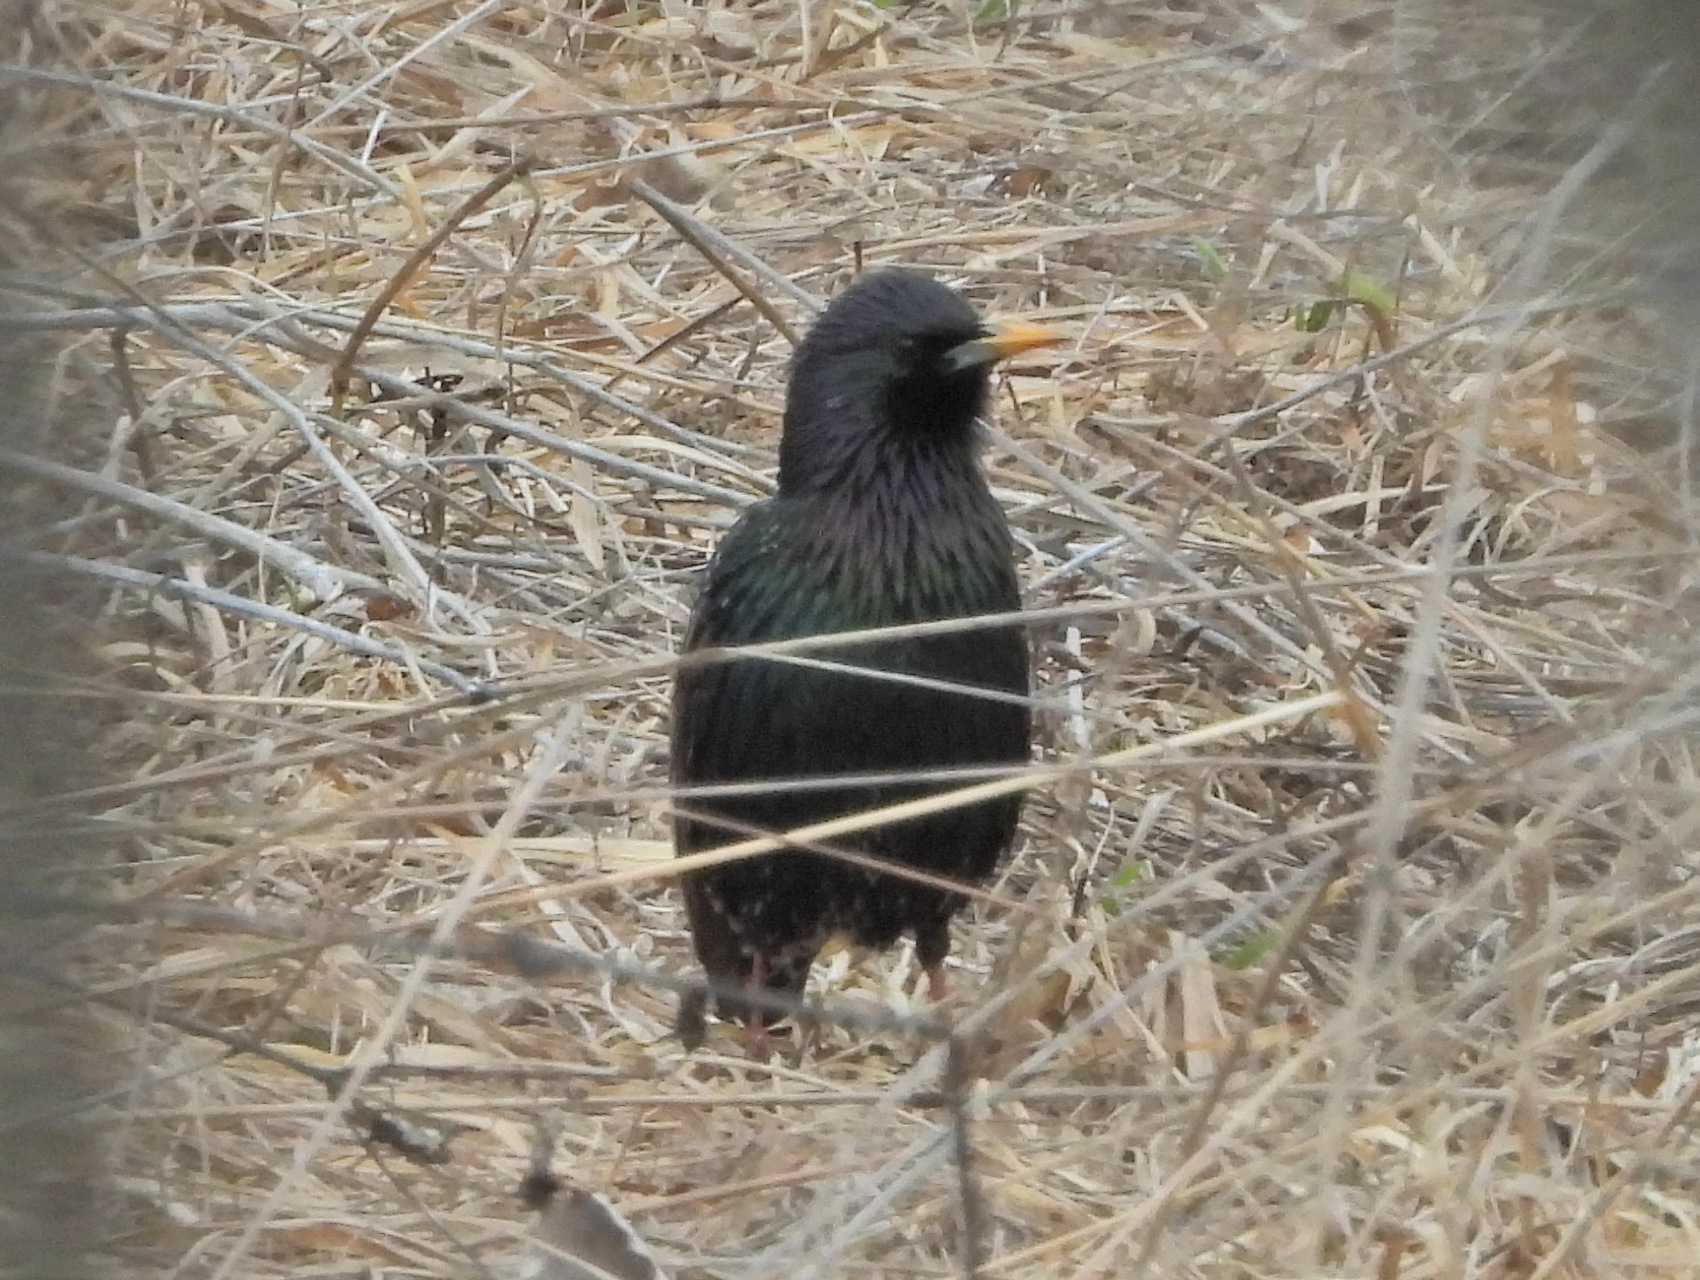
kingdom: Animalia
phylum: Chordata
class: Aves
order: Passeriformes
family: Sturnidae
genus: Sturnus
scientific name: Sturnus vulgaris
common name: Common starling
